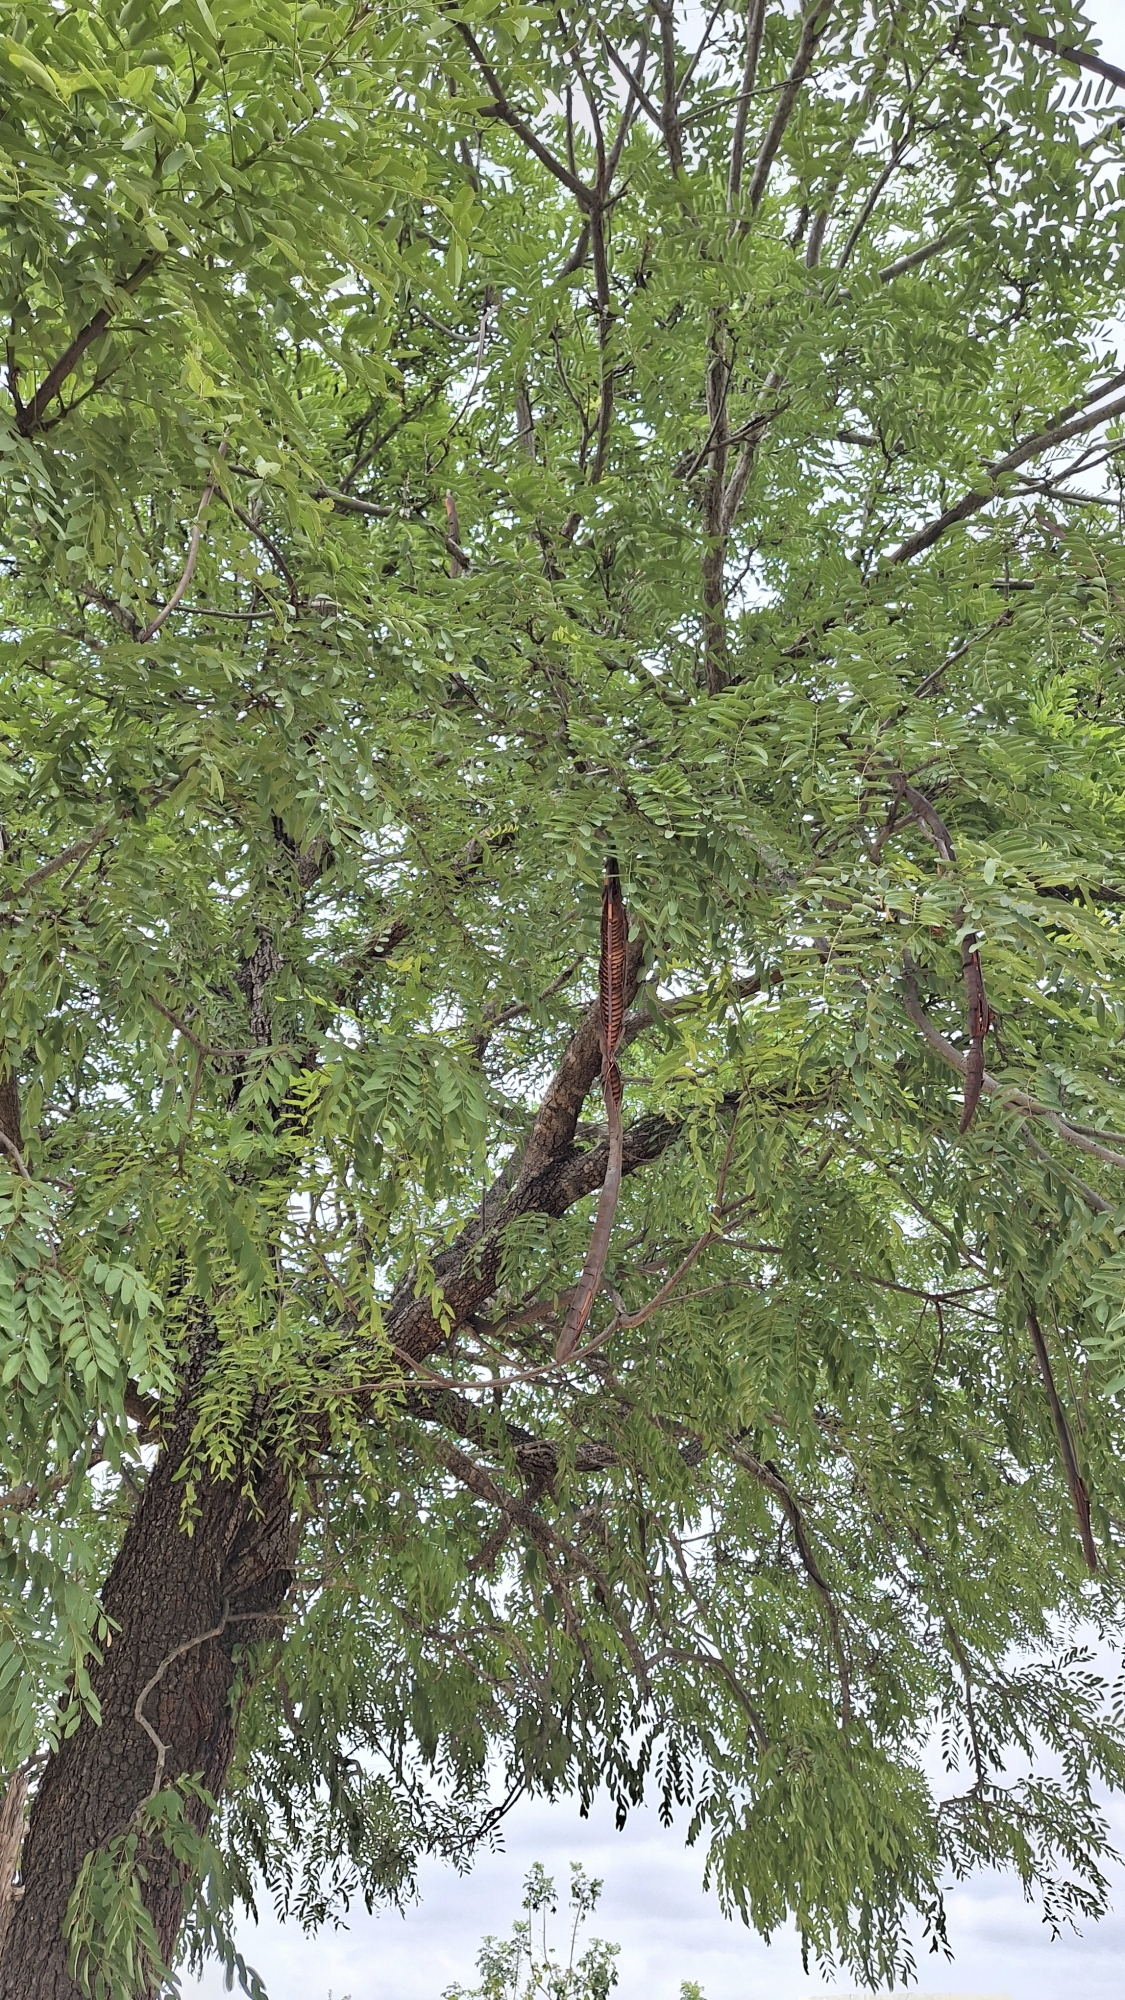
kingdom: Plantae
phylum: Tracheophyta
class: Magnoliopsida
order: Fabales
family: Fabaceae
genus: Cassia
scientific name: Cassia abbreviata
